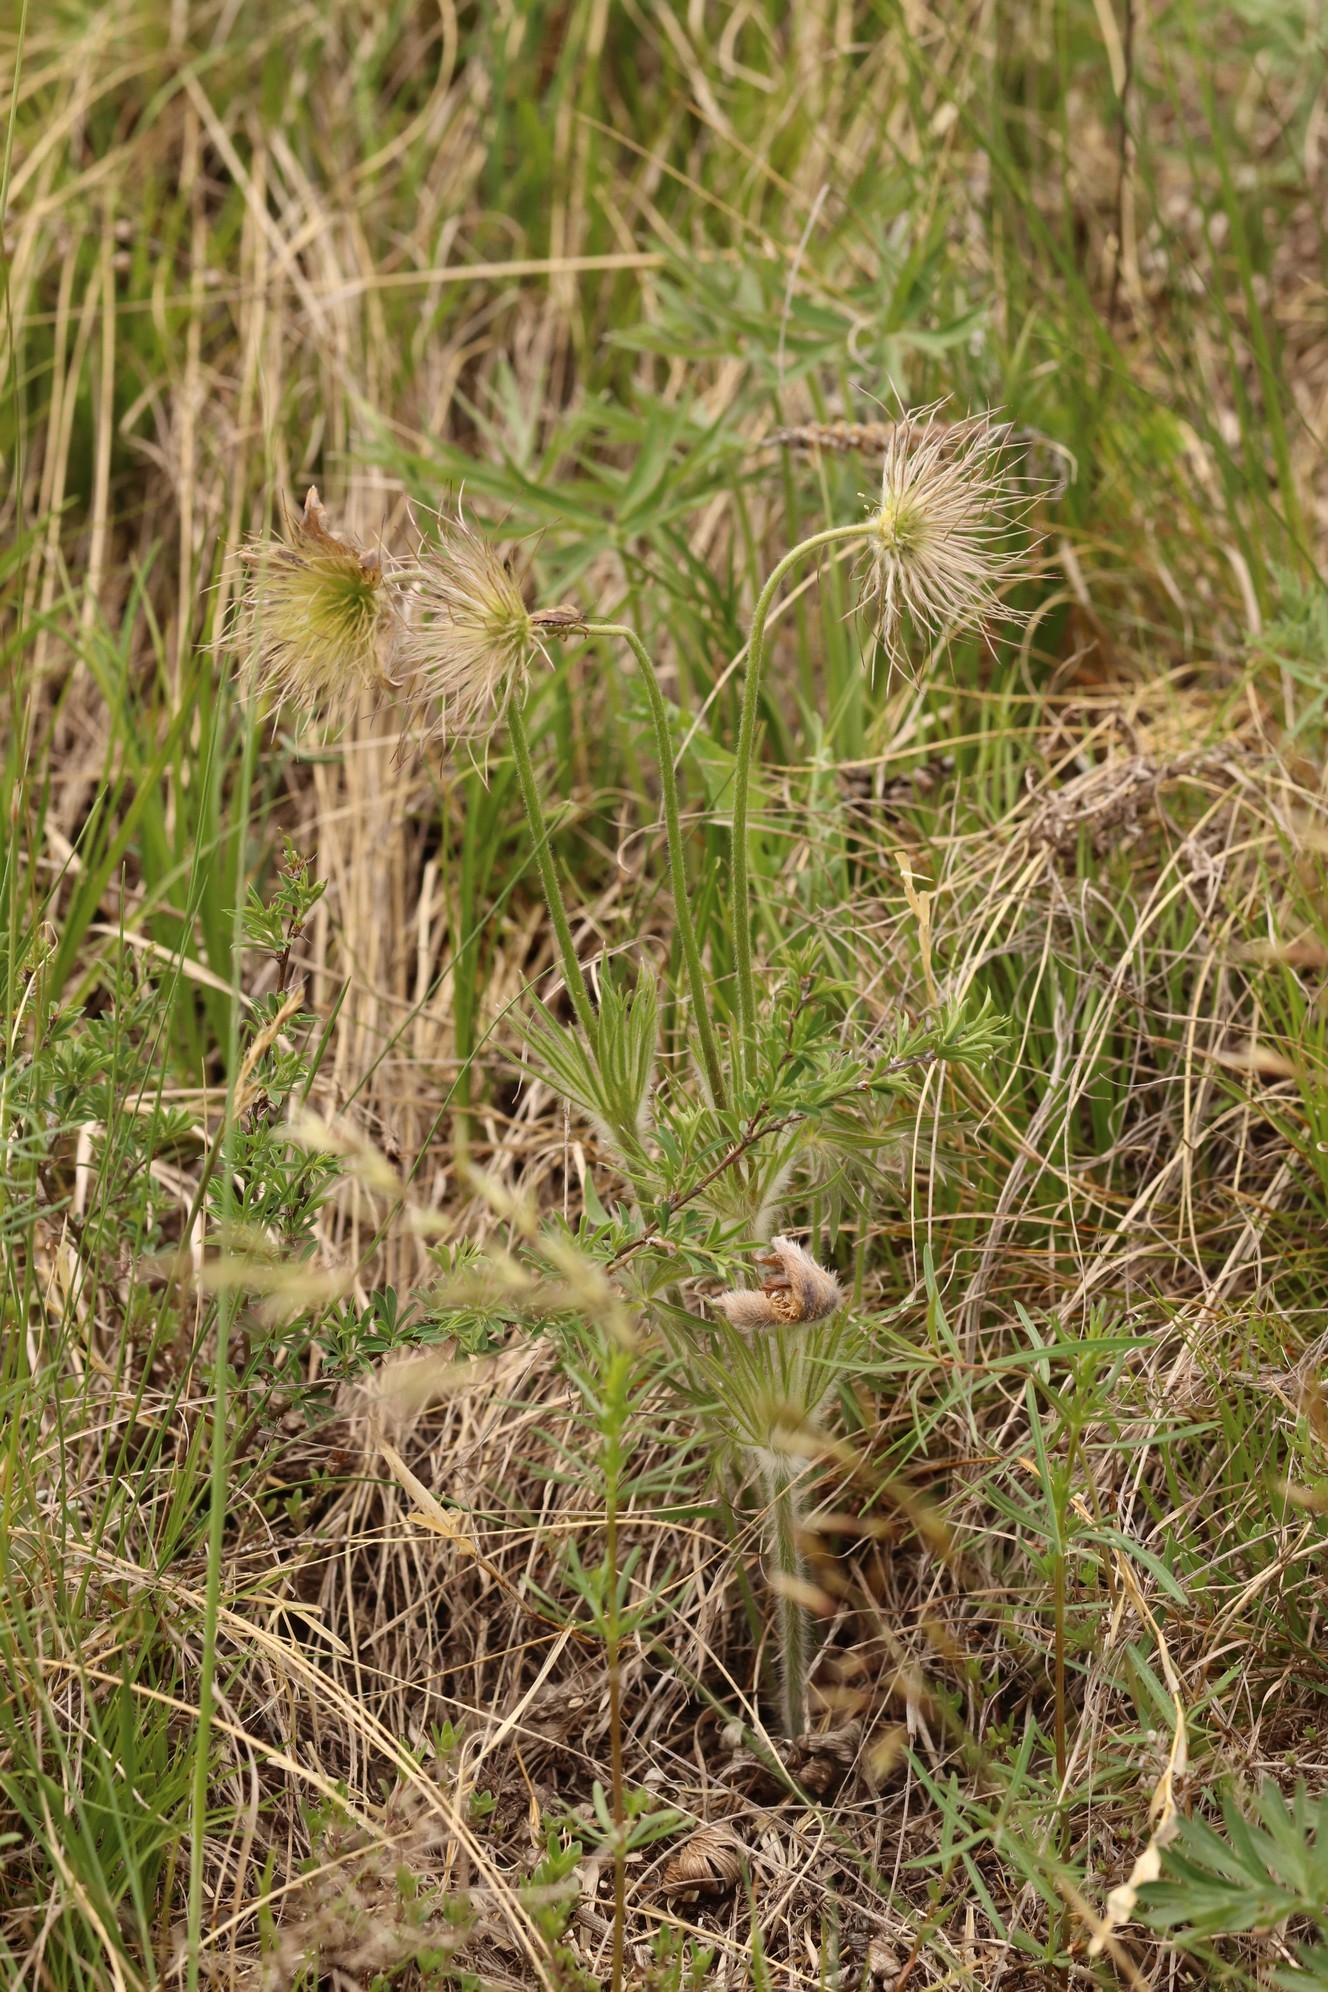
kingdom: Plantae
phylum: Tracheophyta
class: Magnoliopsida
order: Ranunculales
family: Ranunculaceae
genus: Pulsatilla
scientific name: Pulsatilla patens
